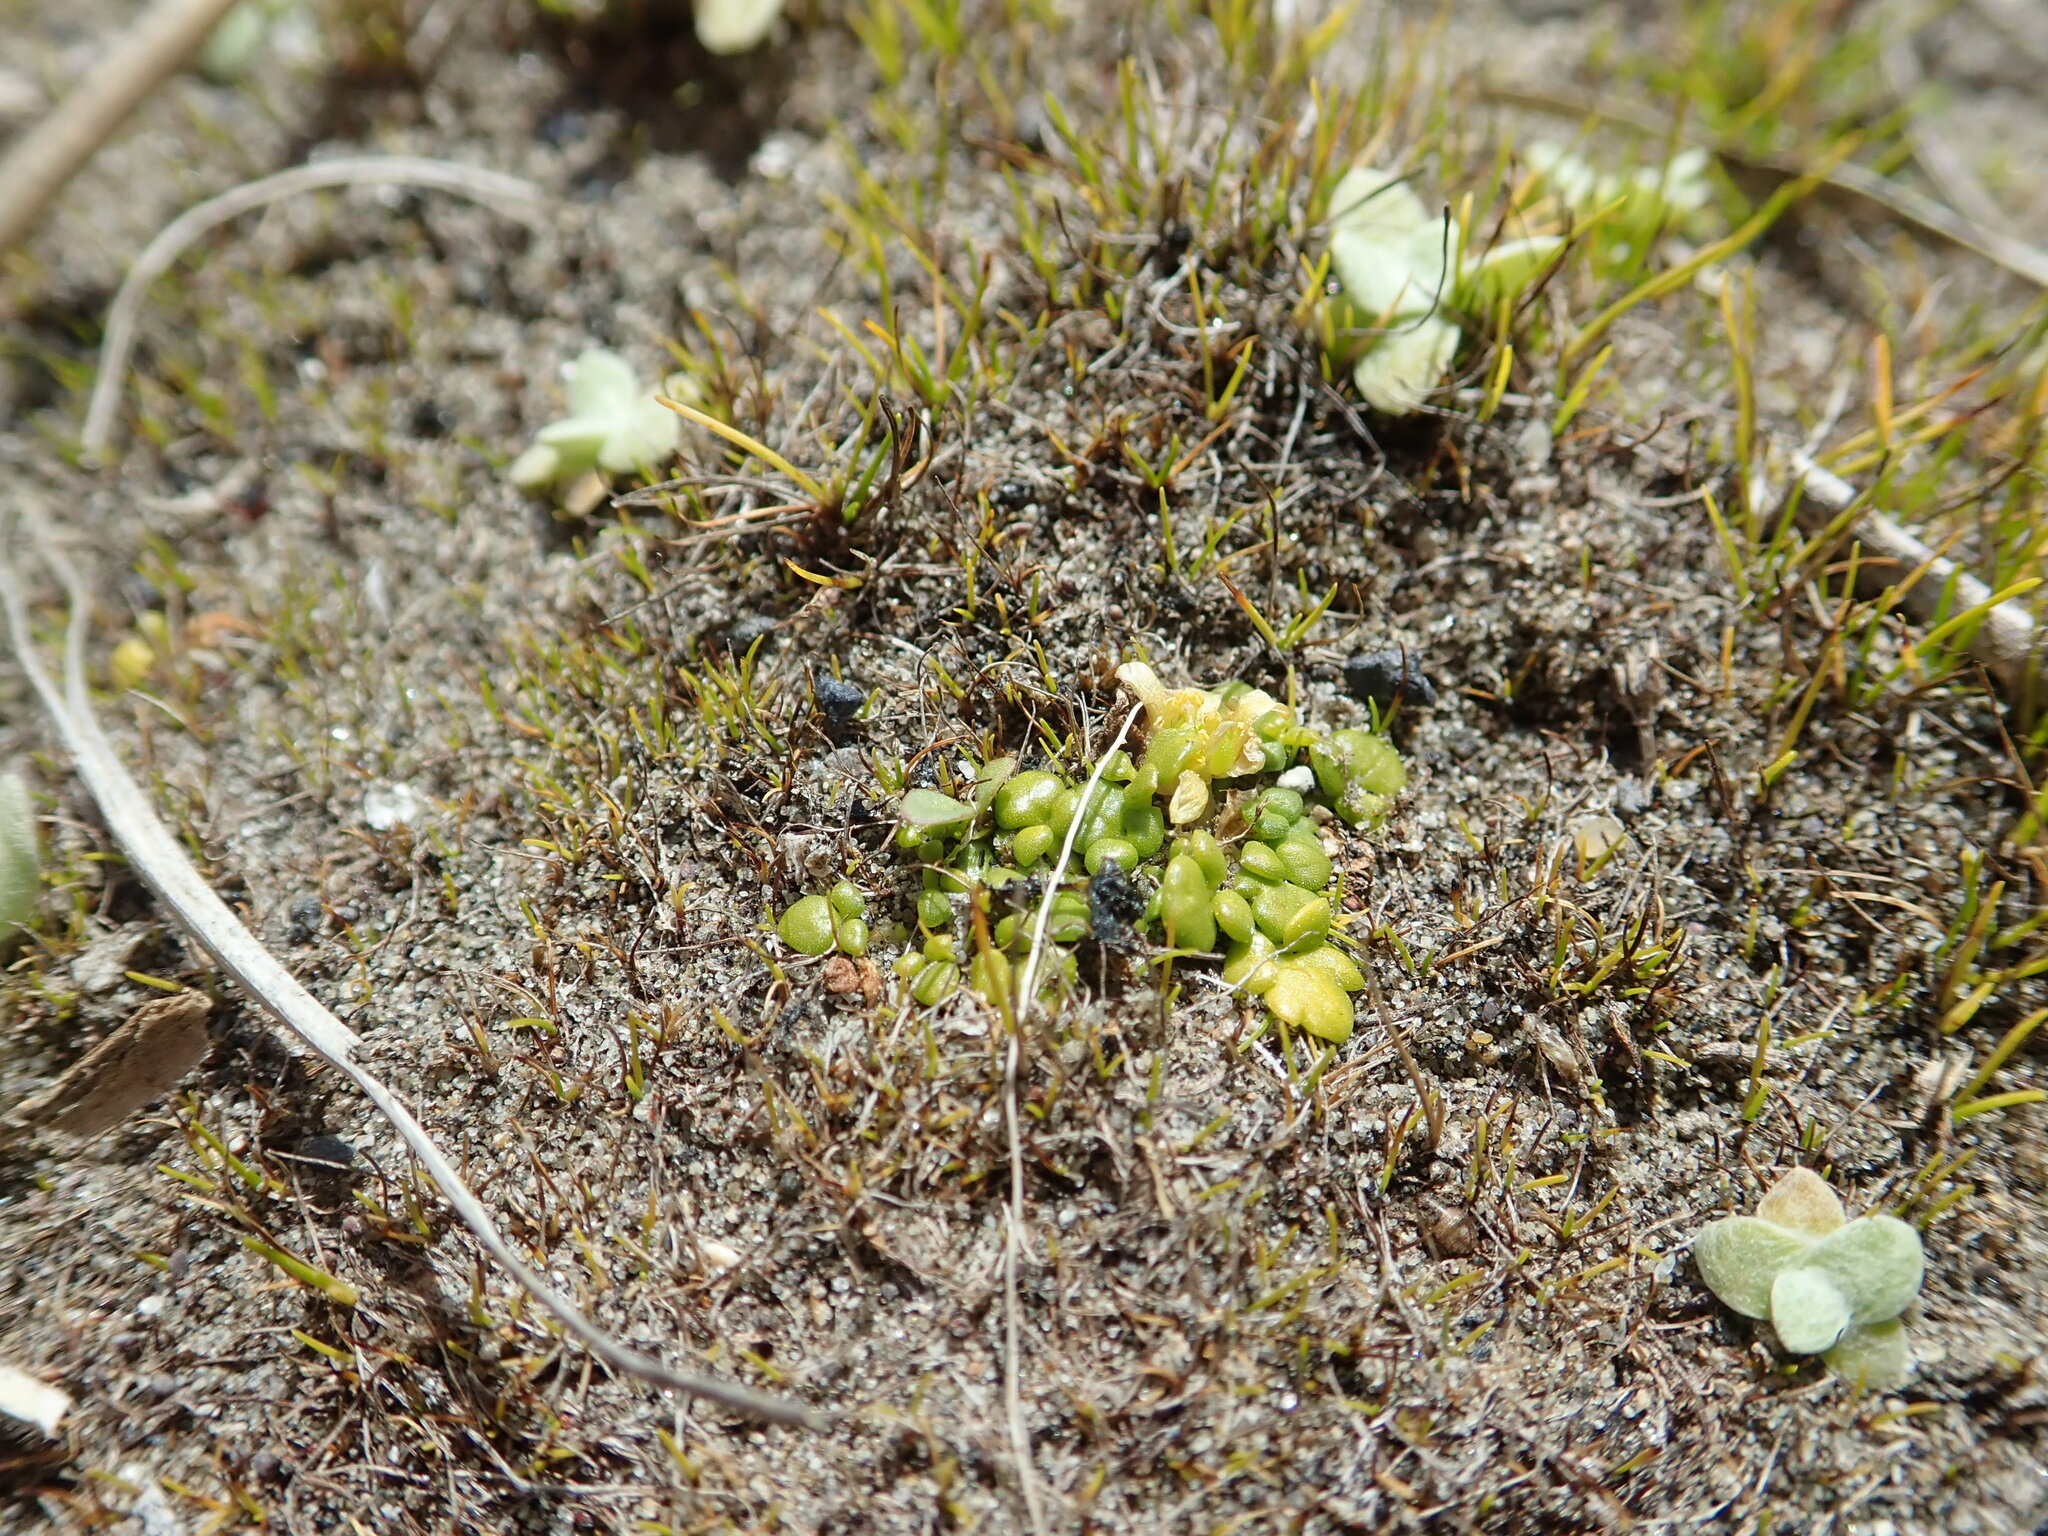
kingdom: Plantae
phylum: Tracheophyta
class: Magnoliopsida
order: Ranunculales
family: Ranunculaceae
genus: Ranunculus
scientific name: Ranunculus acaulis
